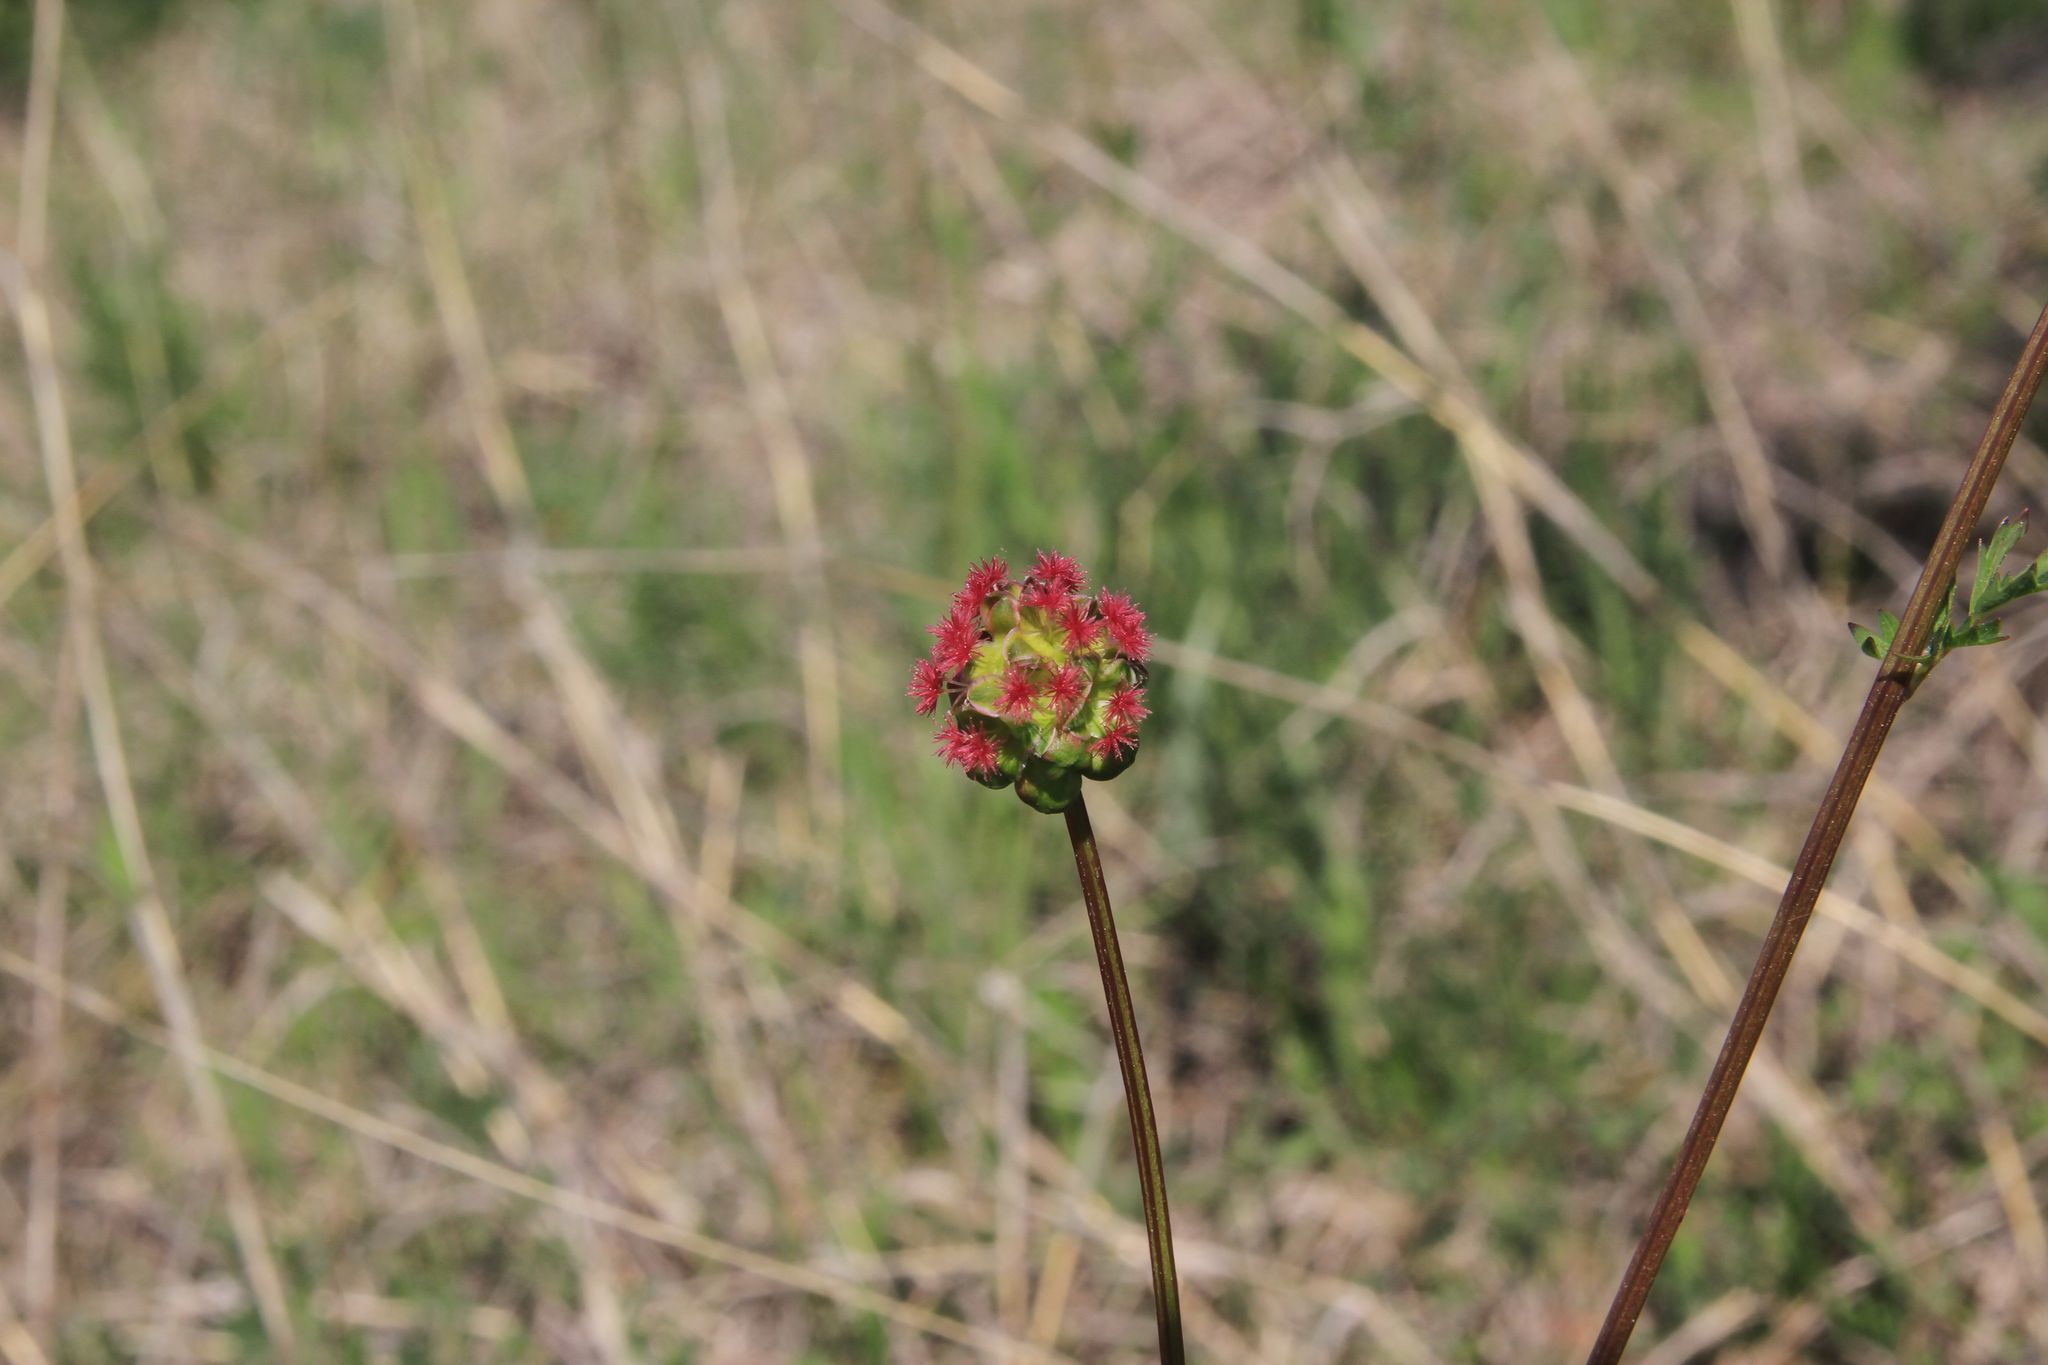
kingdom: Plantae
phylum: Tracheophyta
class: Magnoliopsida
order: Rosales
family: Rosaceae
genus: Poterium
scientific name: Poterium sanguisorba
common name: Salad burnet
